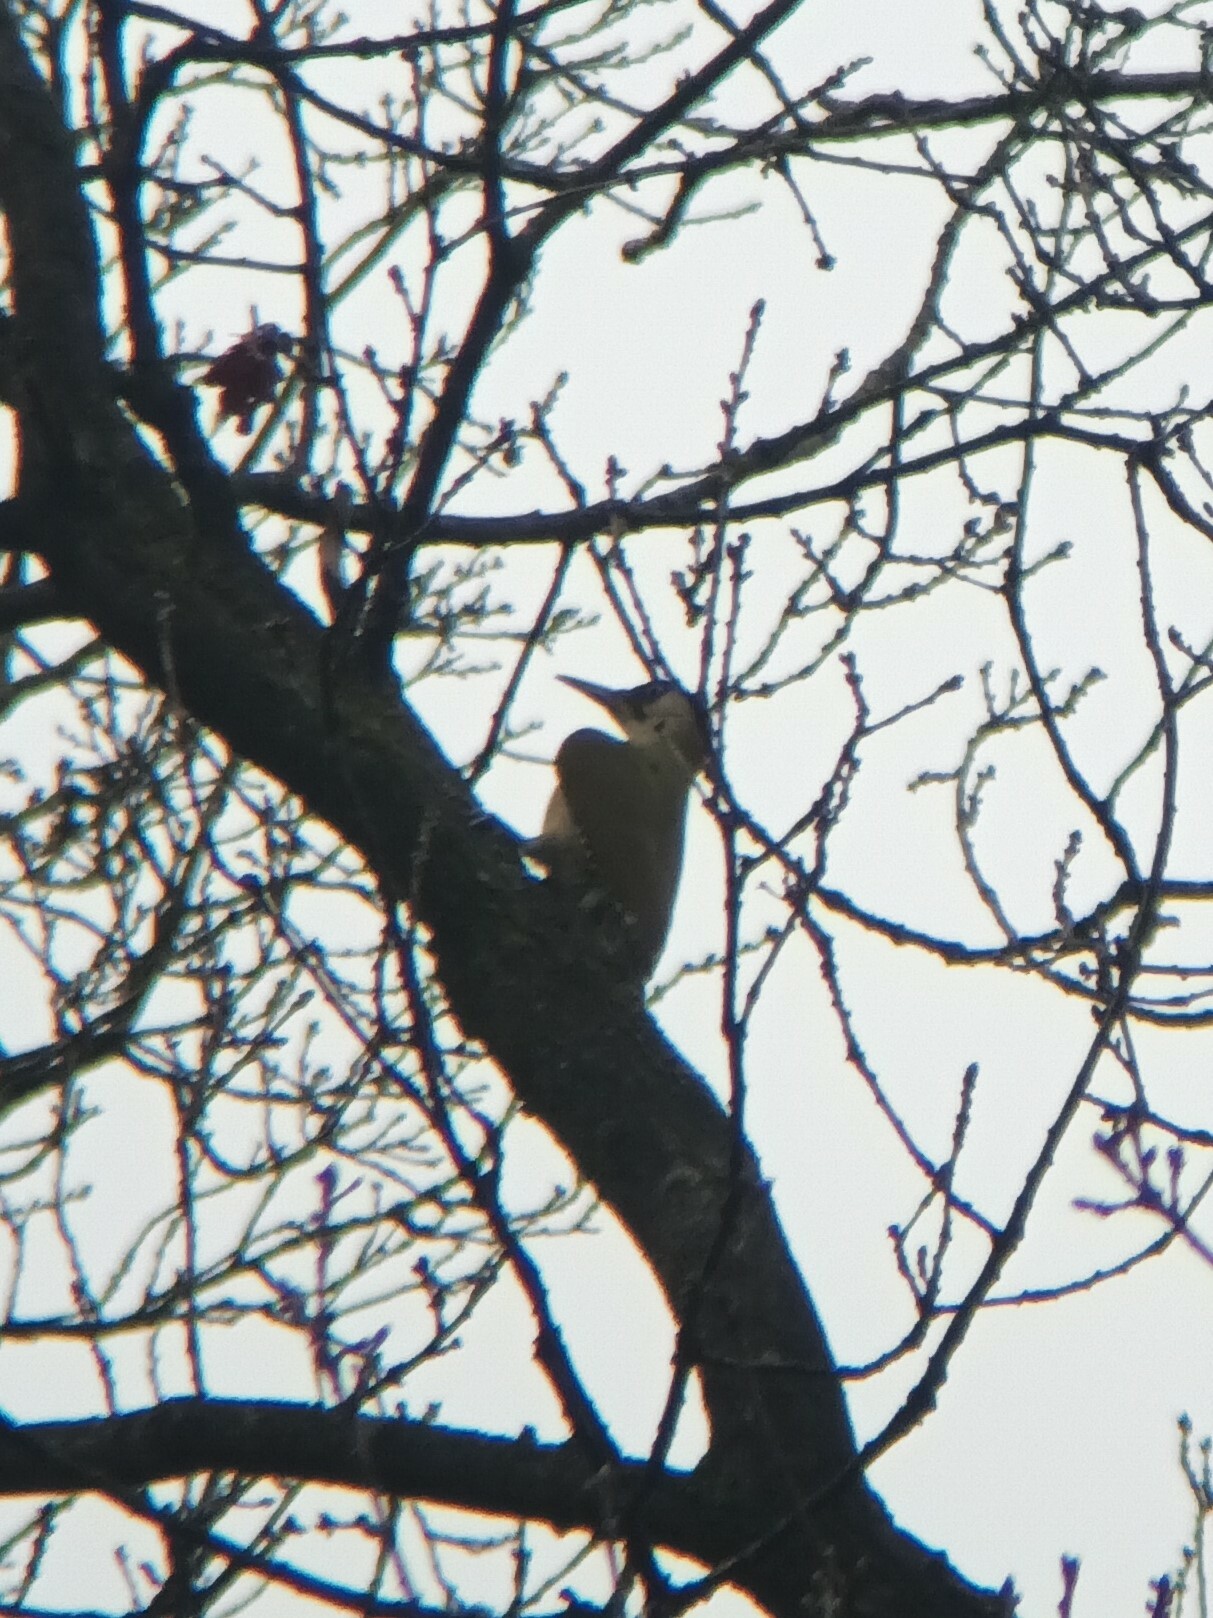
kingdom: Animalia
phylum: Chordata
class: Aves
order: Piciformes
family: Picidae
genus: Picus
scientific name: Picus viridis
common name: European green woodpecker
